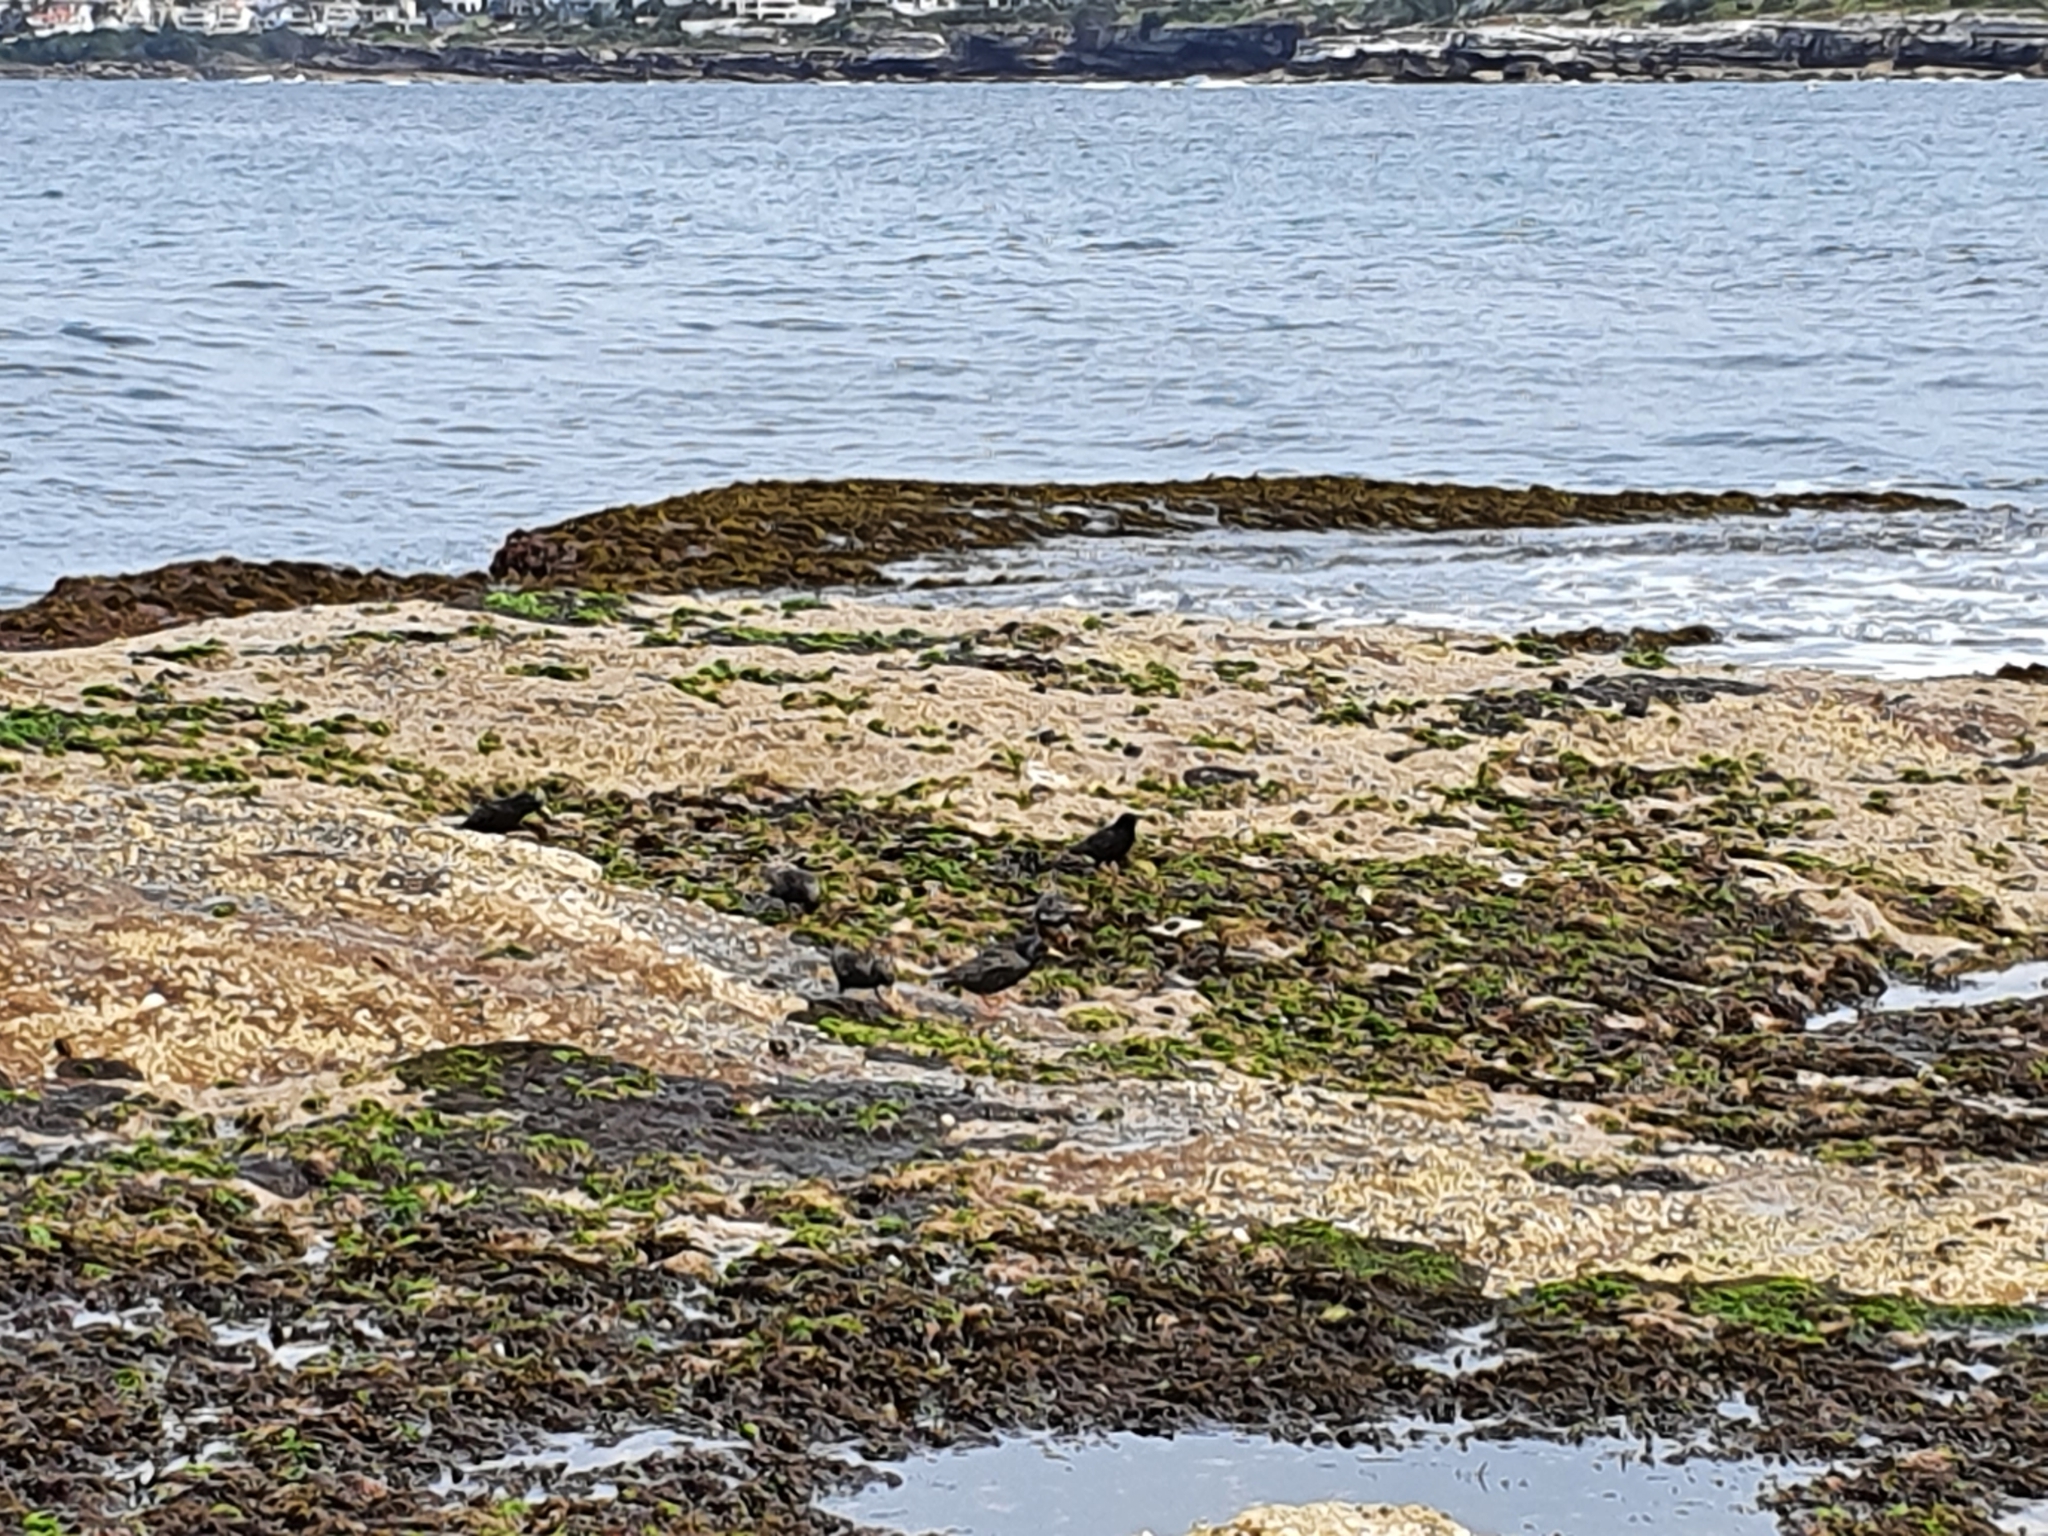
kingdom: Animalia
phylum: Chordata
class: Aves
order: Passeriformes
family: Sturnidae
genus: Sturnus
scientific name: Sturnus vulgaris
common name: Common starling
